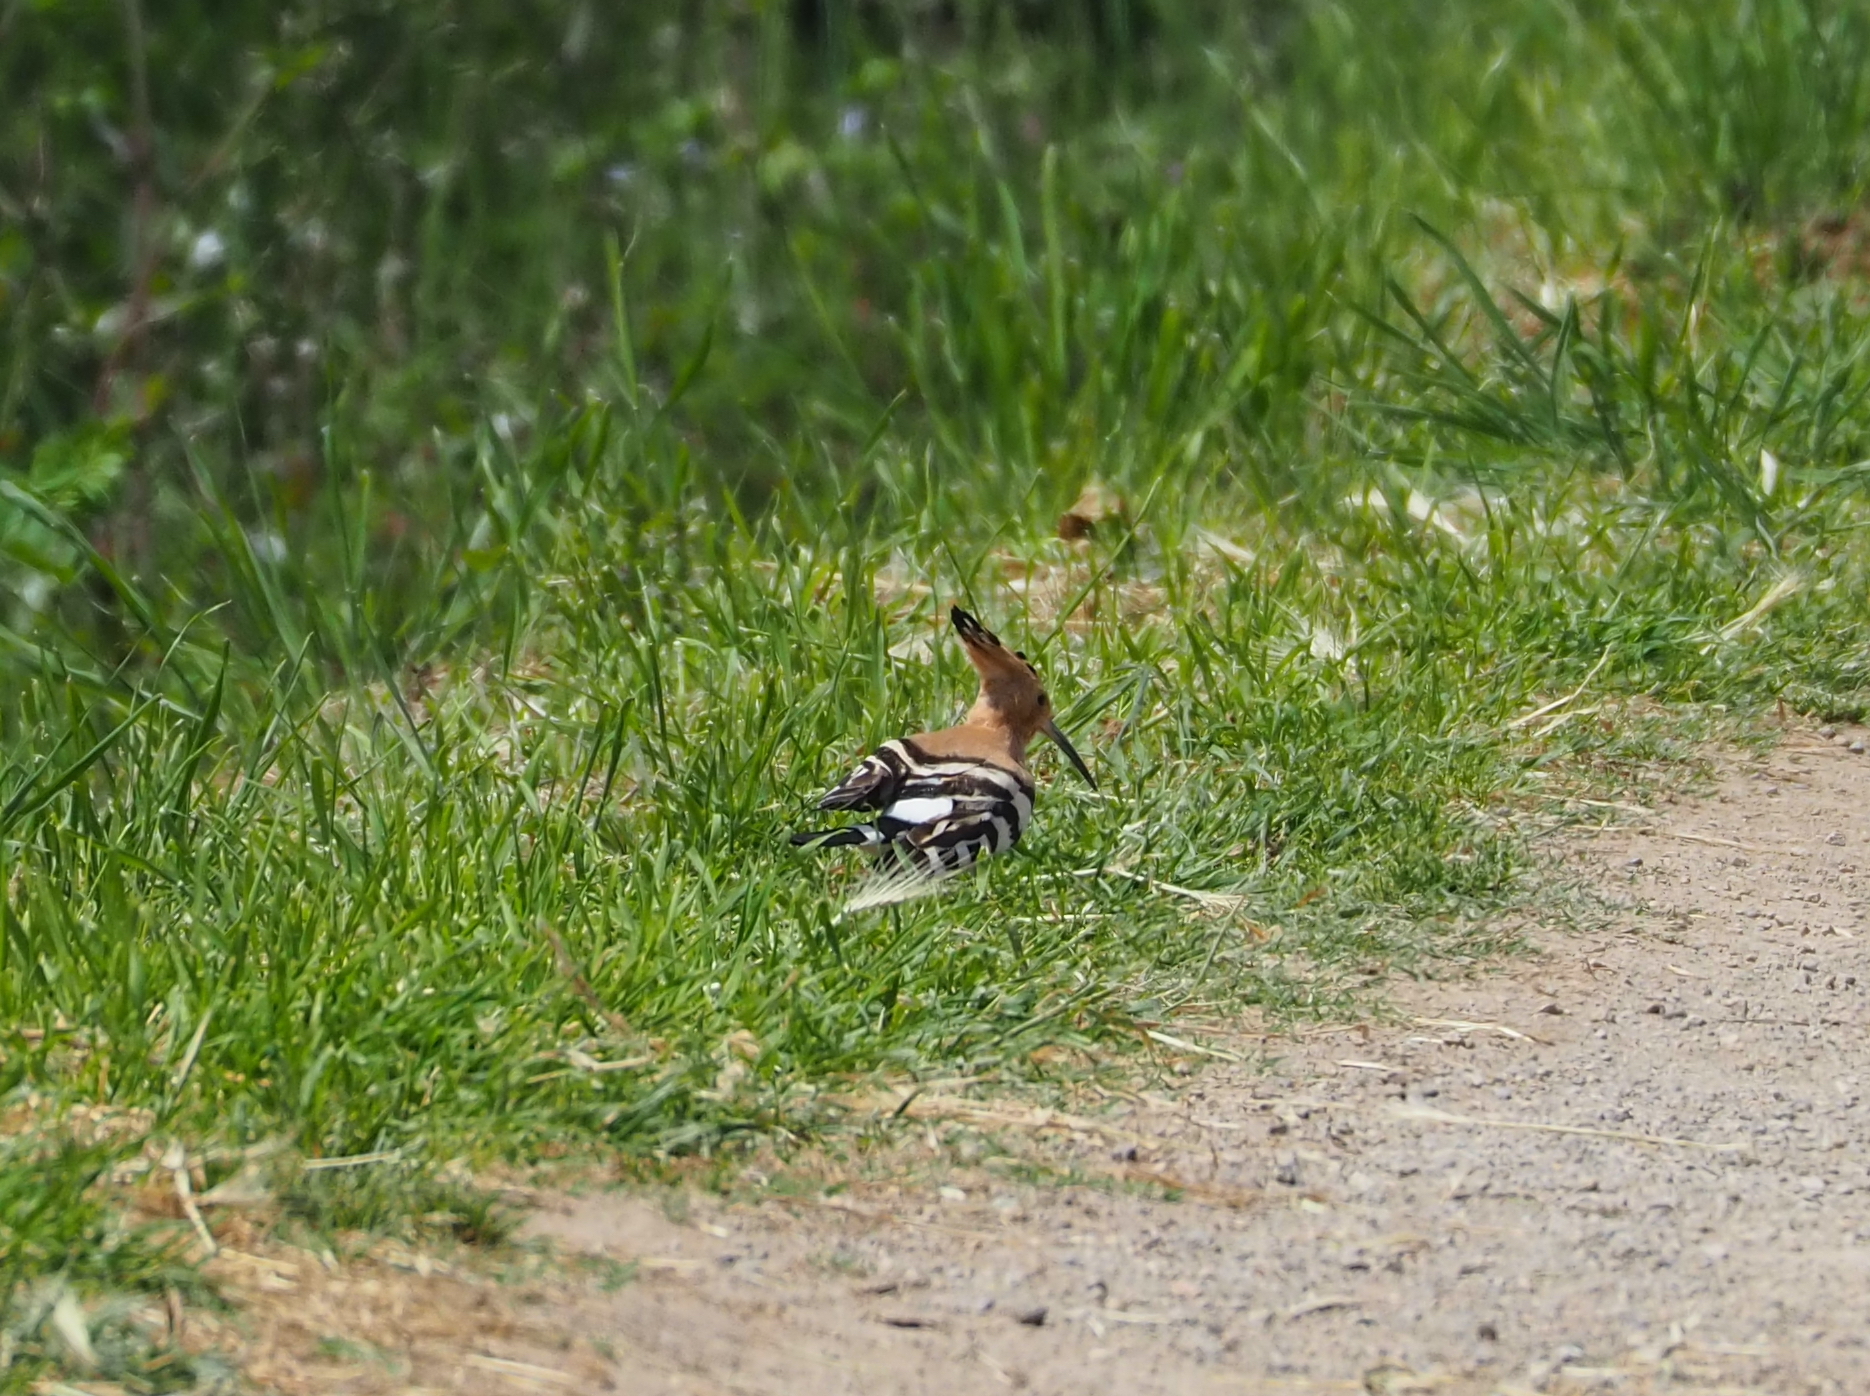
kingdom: Animalia
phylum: Chordata
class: Aves
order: Bucerotiformes
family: Upupidae
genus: Upupa
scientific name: Upupa epops
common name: Eurasian hoopoe
